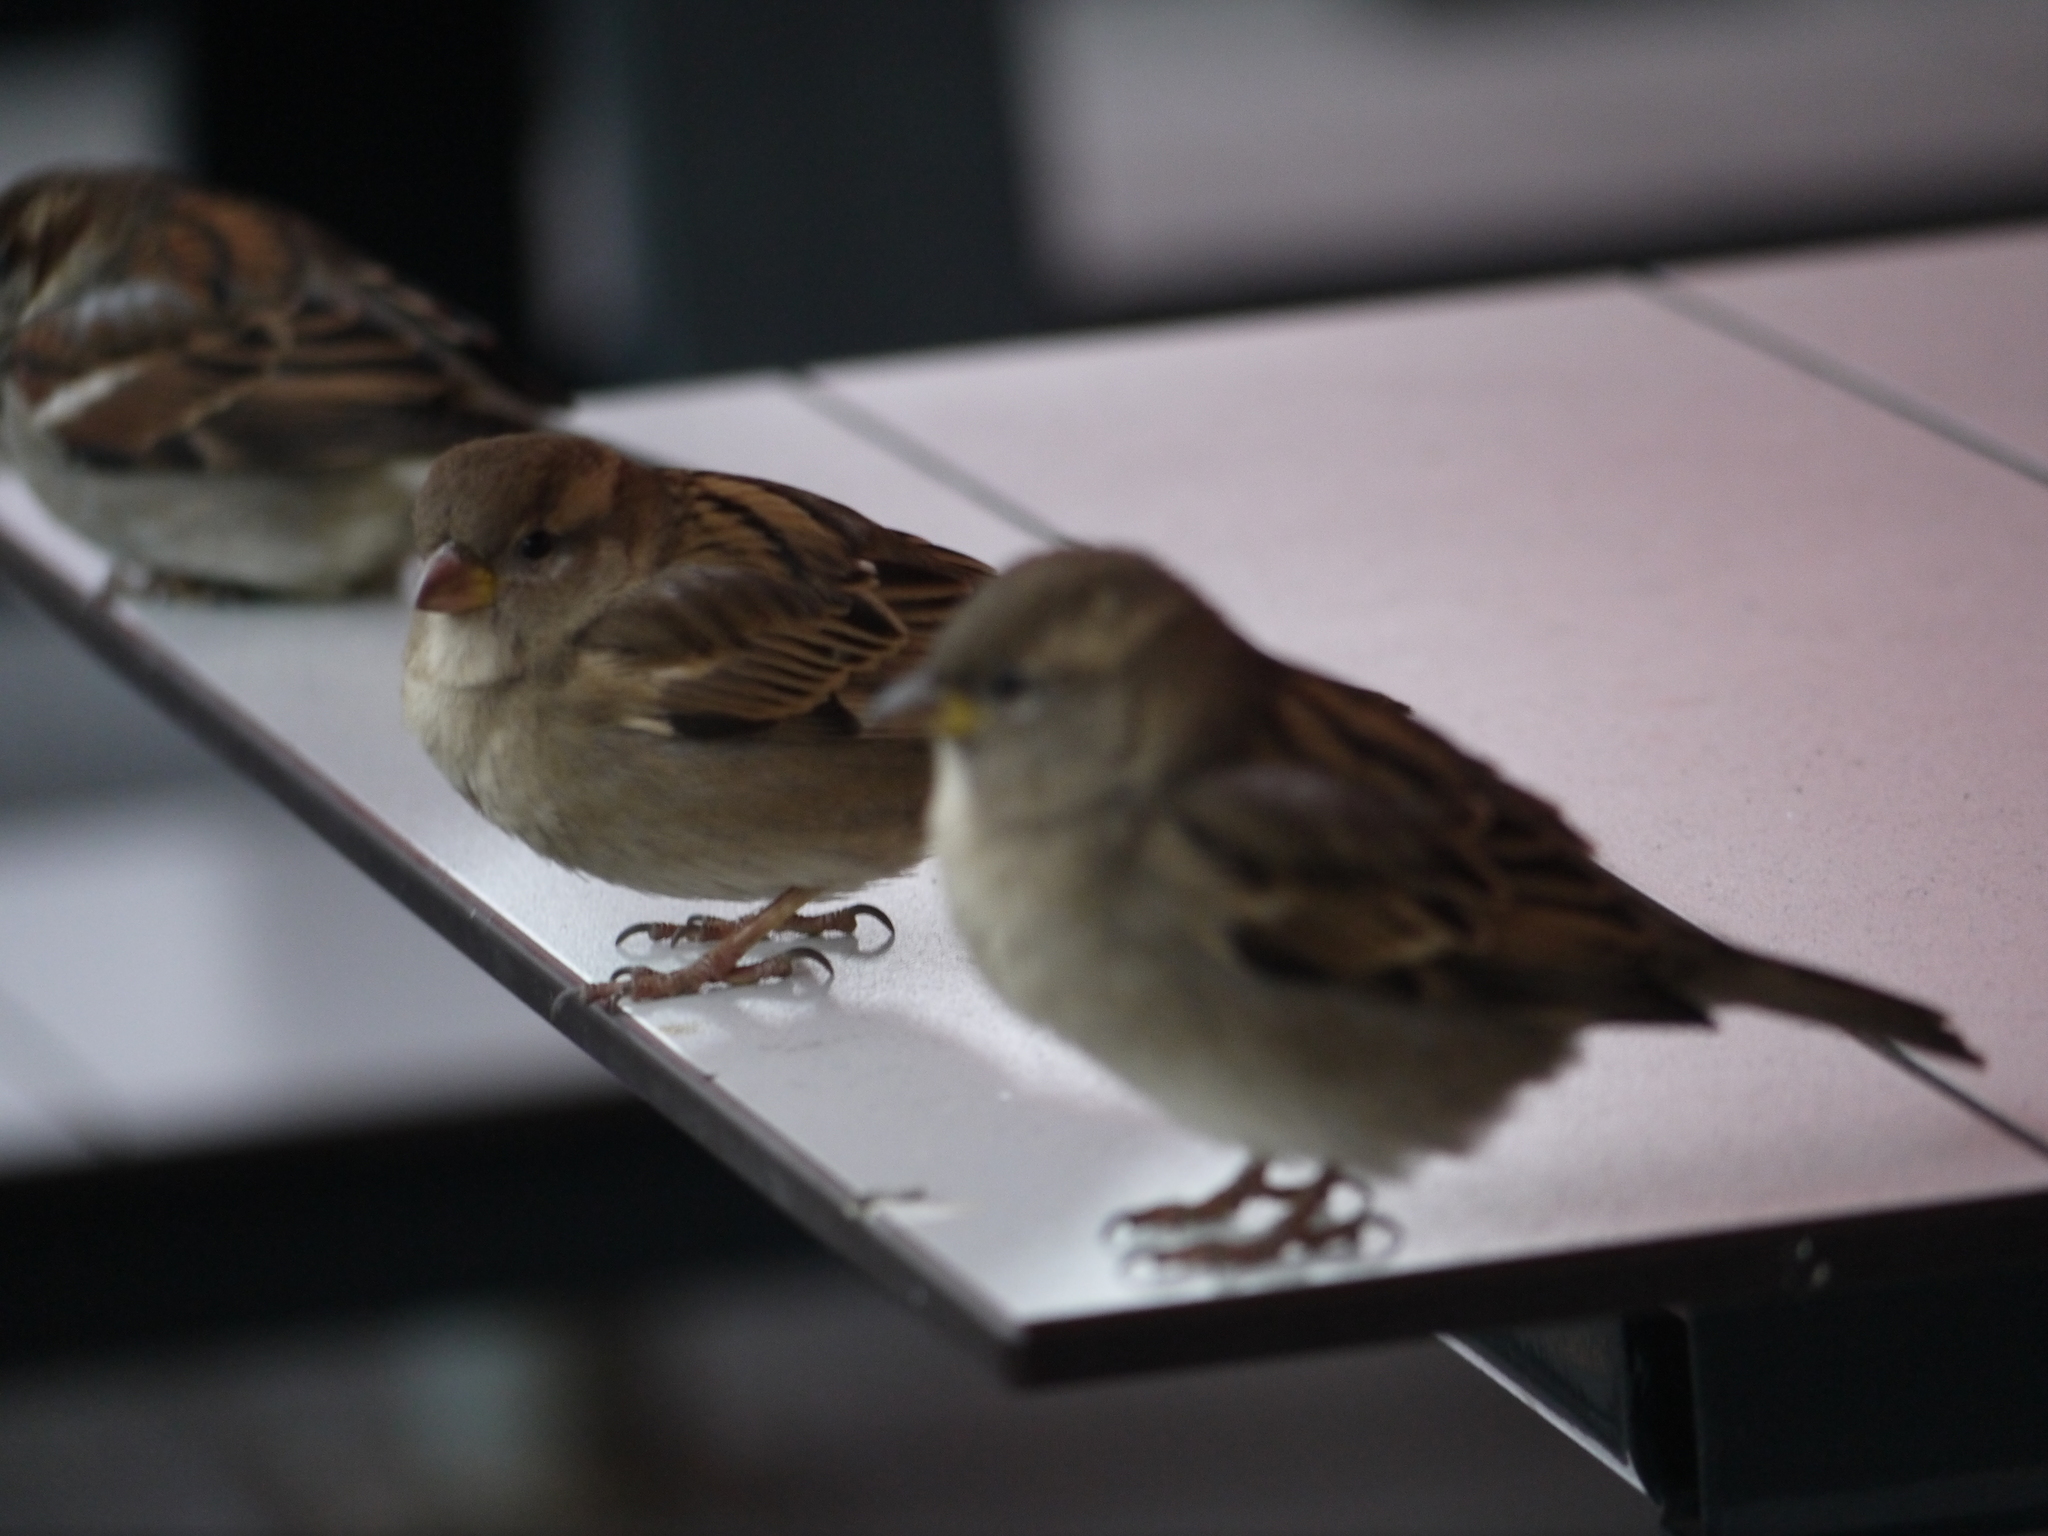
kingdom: Animalia
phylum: Chordata
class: Aves
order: Passeriformes
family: Passeridae
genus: Passer
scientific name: Passer domesticus
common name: House sparrow
